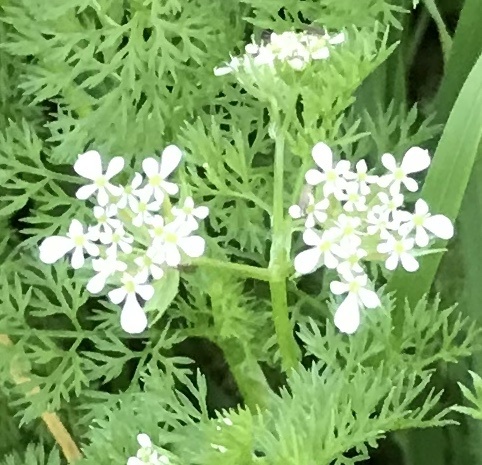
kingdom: Plantae
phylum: Tracheophyta
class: Magnoliopsida
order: Apiales
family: Apiaceae
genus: Scandix
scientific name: Scandix pecten-veneris
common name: Shepherd's-needle
